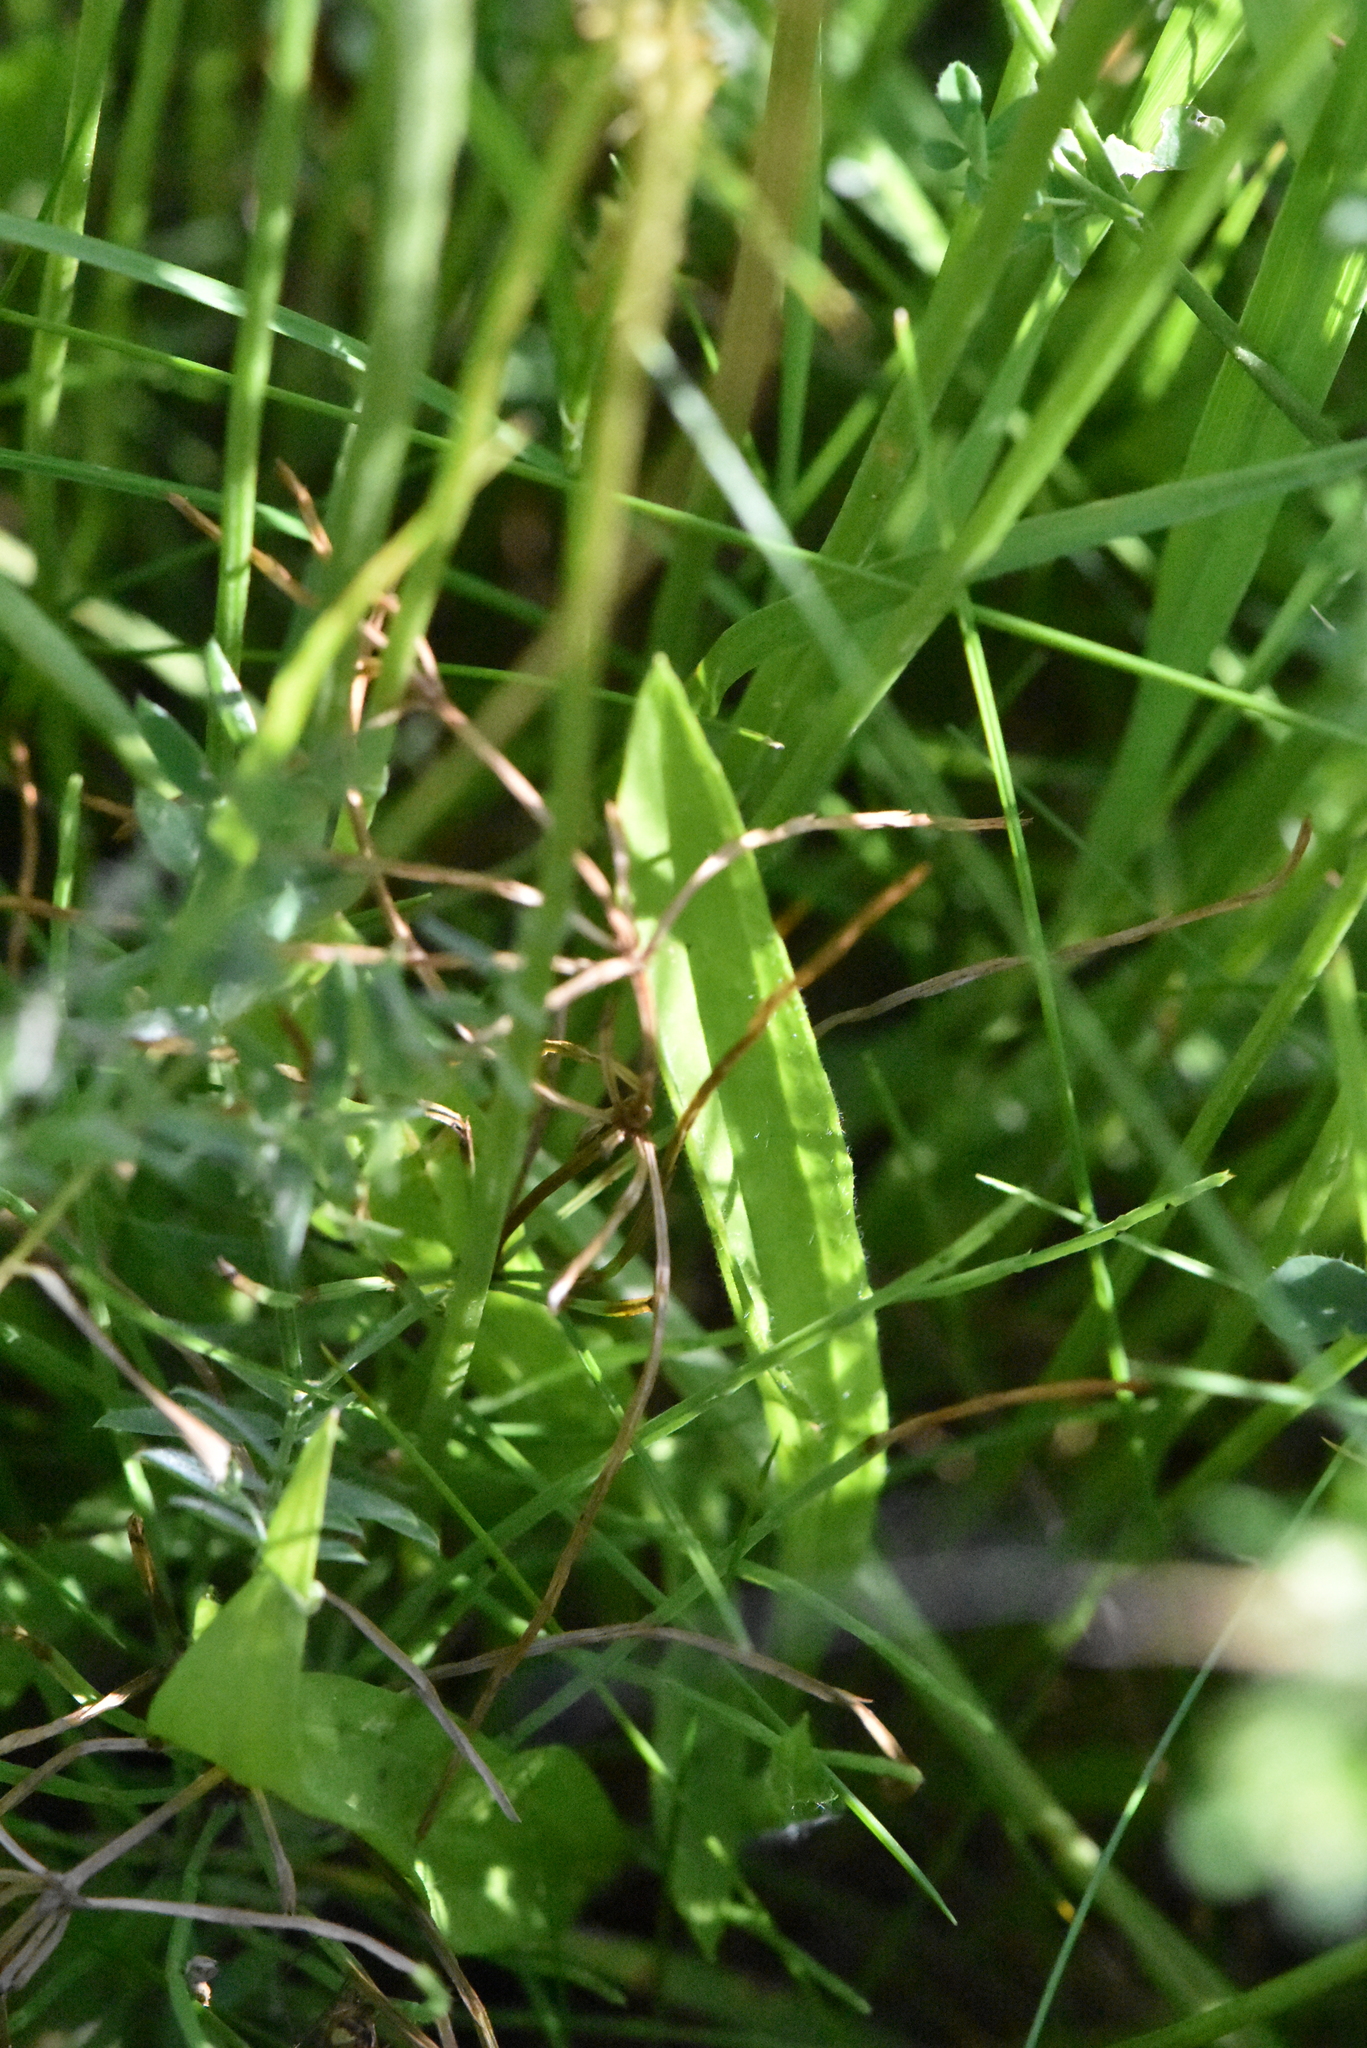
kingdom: Plantae
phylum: Tracheophyta
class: Magnoliopsida
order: Lamiales
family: Plantaginaceae
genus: Plantago
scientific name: Plantago lanceolata
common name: Ribwort plantain
